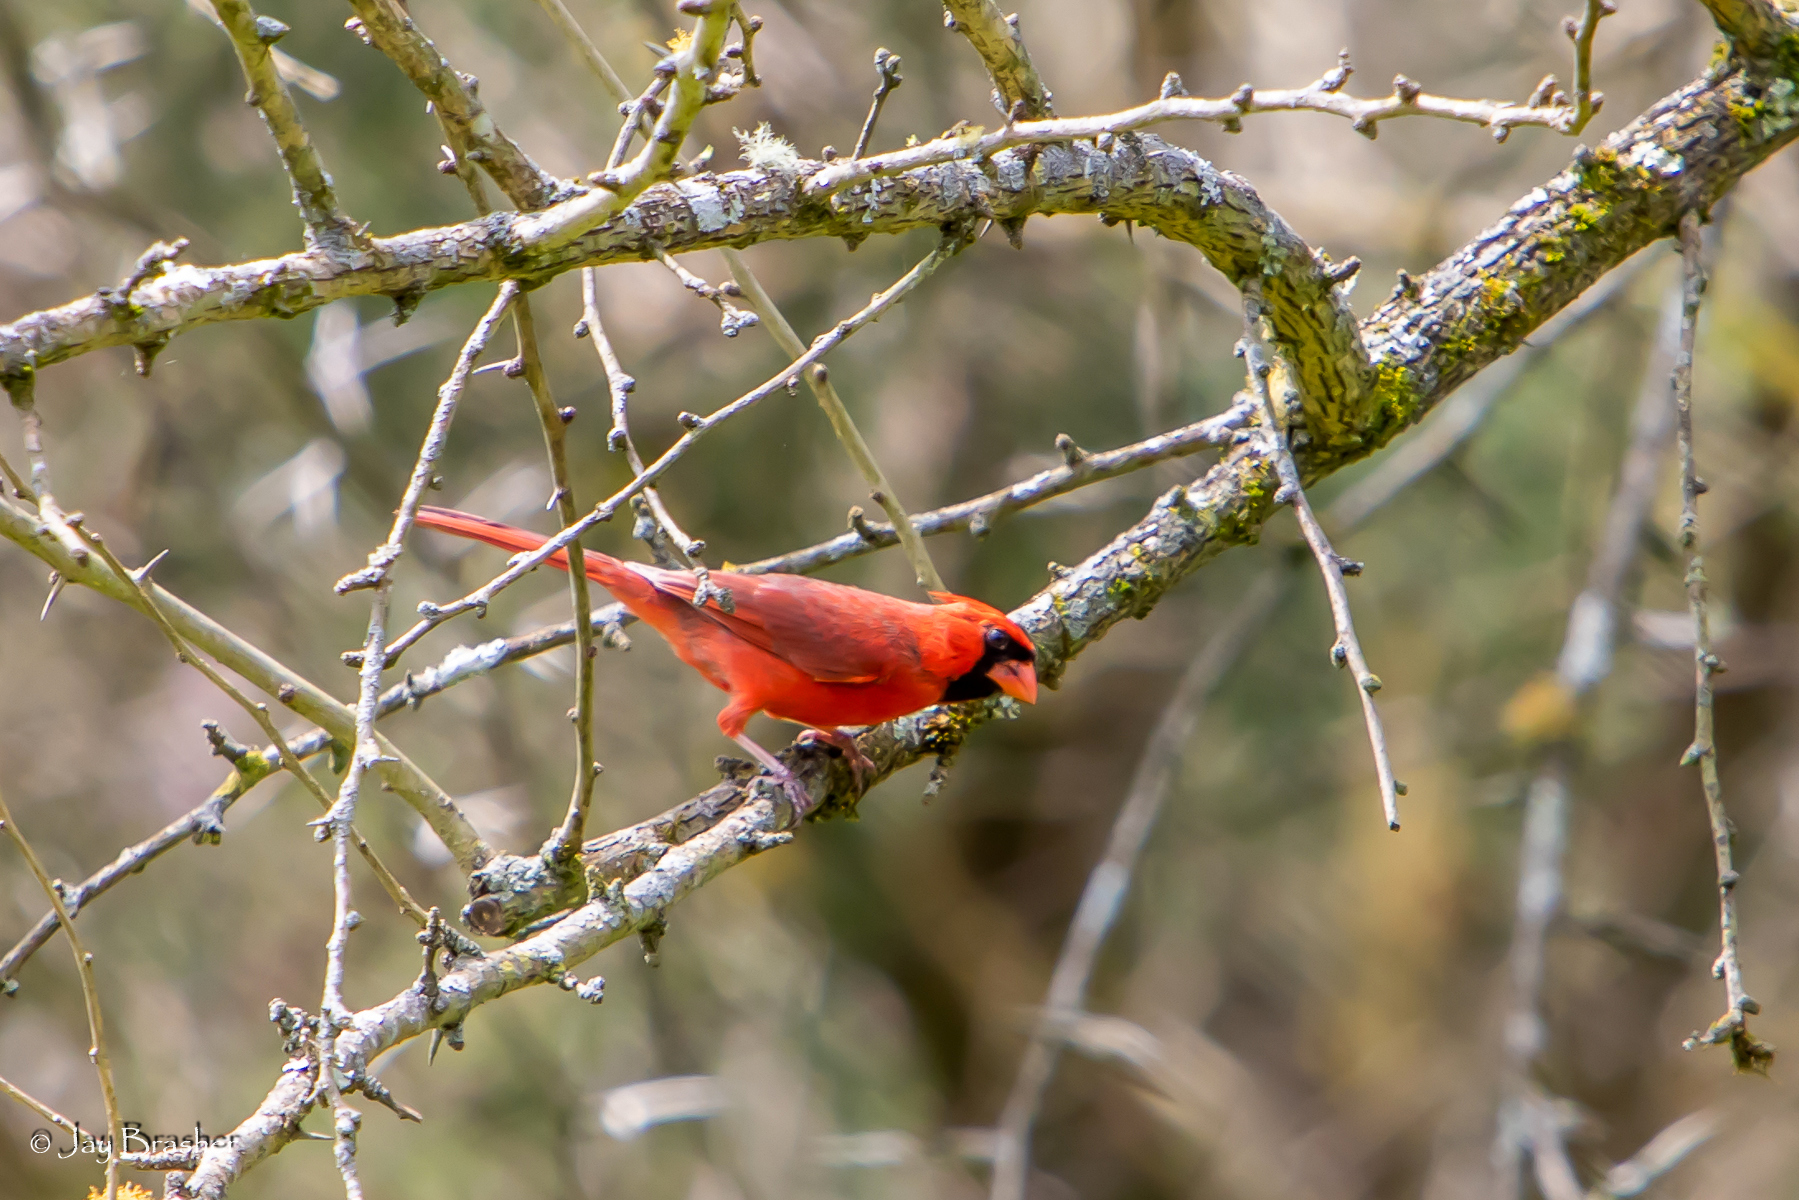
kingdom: Animalia
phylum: Chordata
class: Aves
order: Passeriformes
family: Cardinalidae
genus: Cardinalis
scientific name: Cardinalis cardinalis
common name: Northern cardinal
